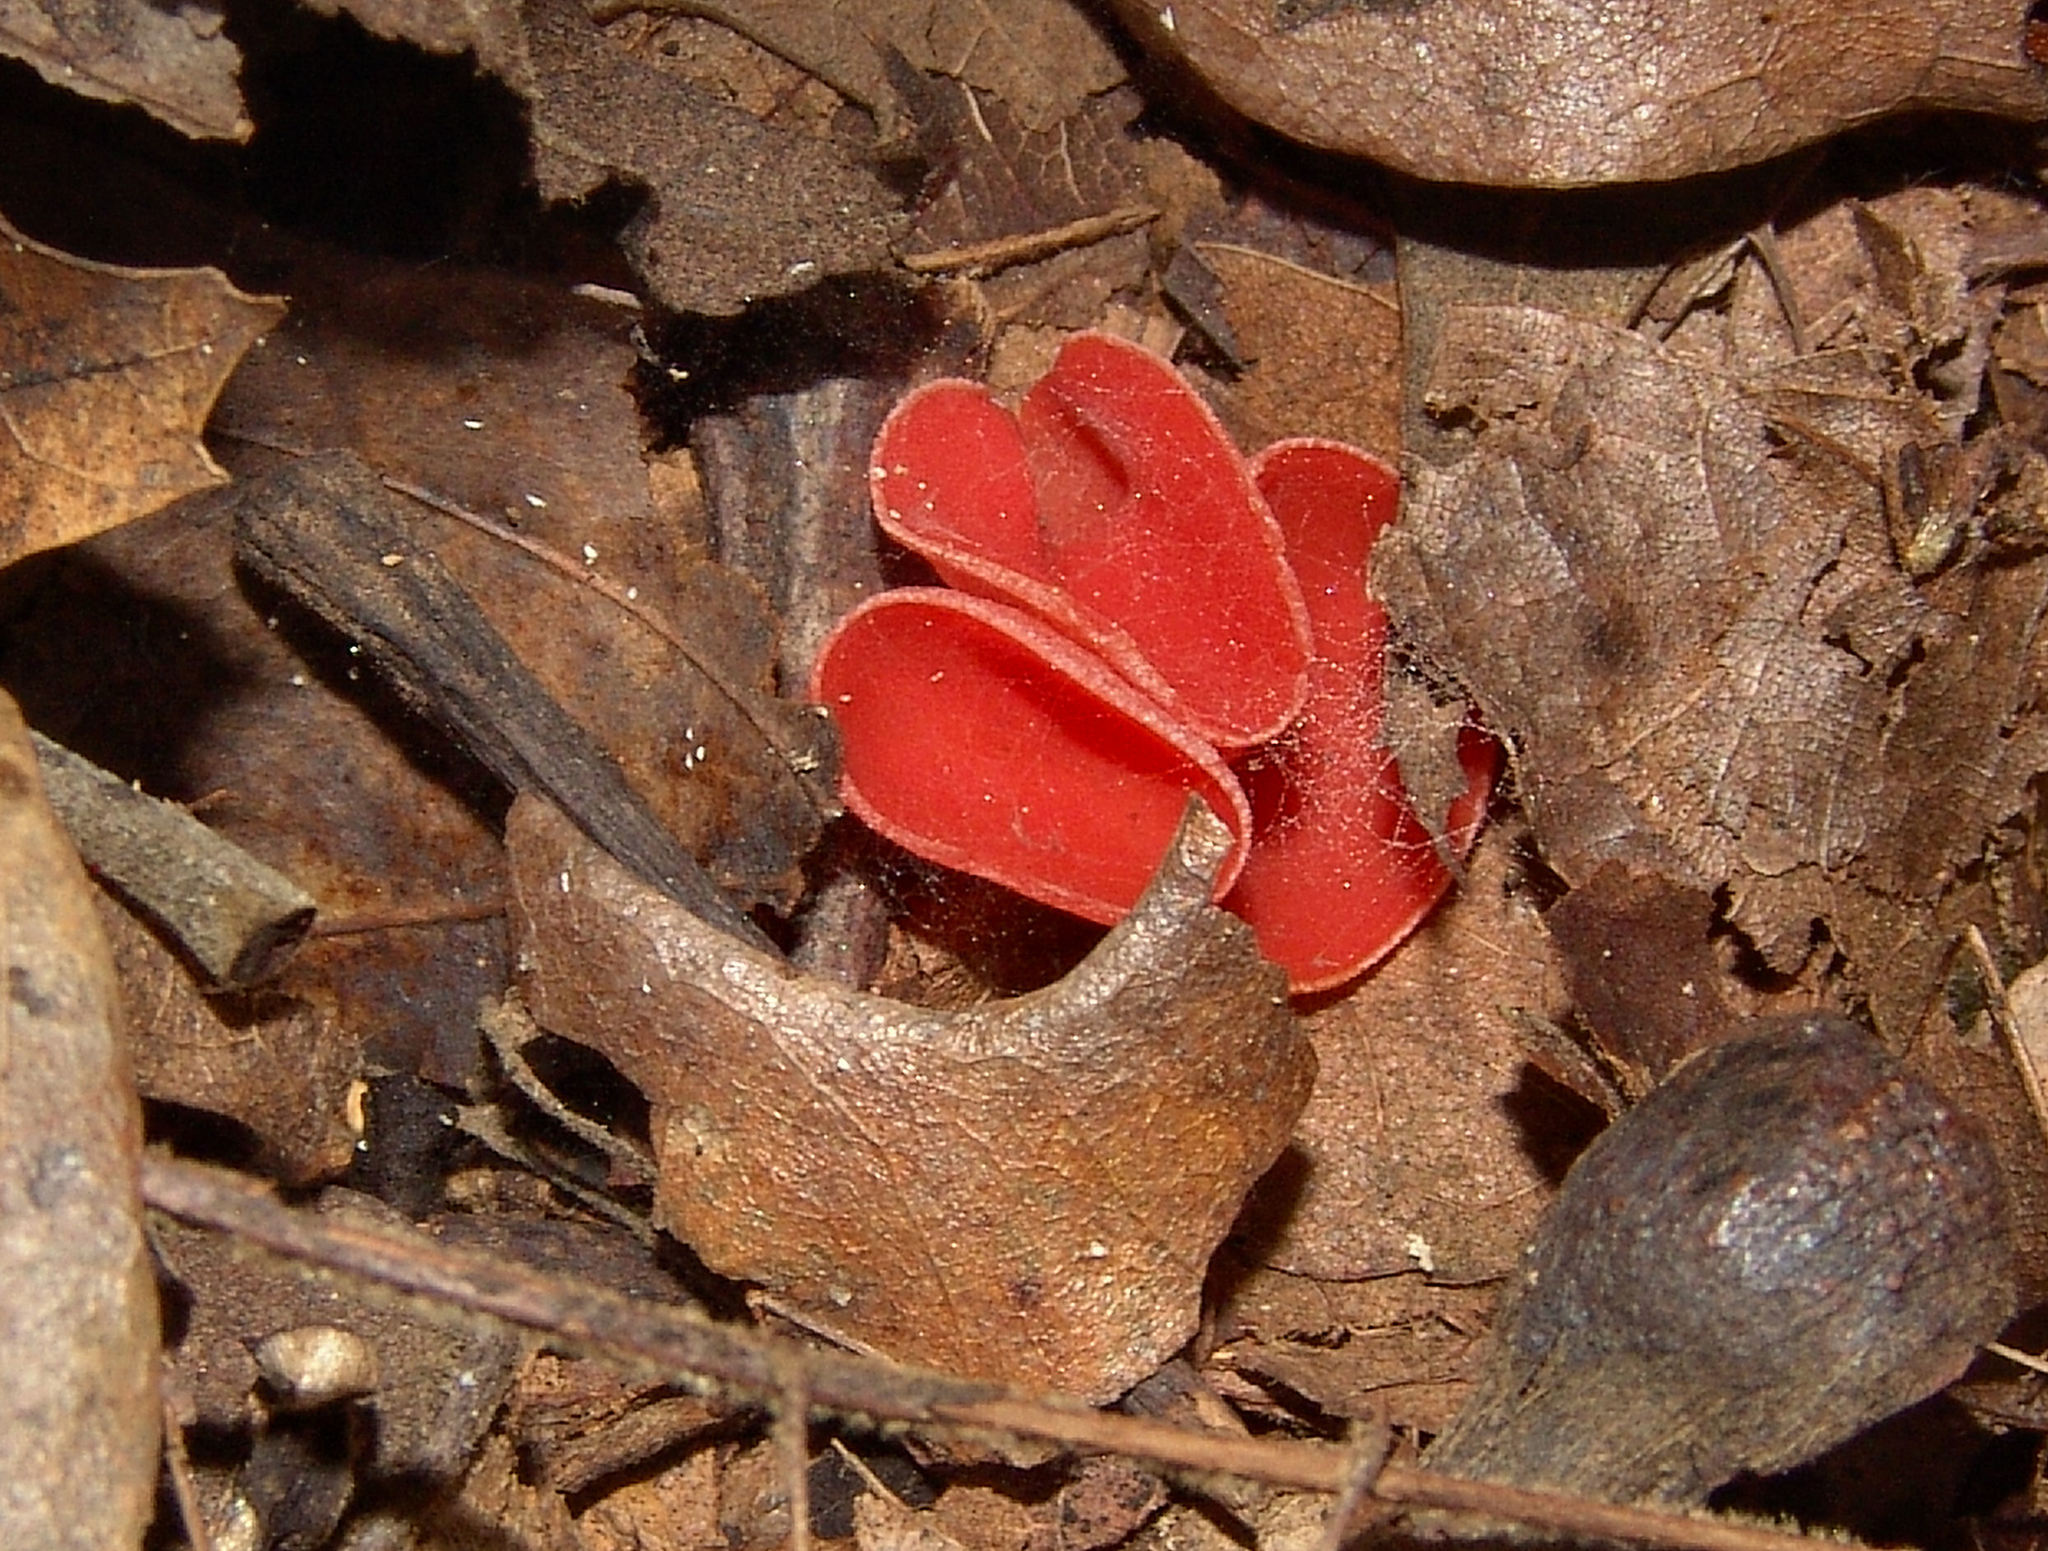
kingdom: Fungi
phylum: Ascomycota
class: Pezizomycetes
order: Pezizales
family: Sarcoscyphaceae
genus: Sarcoscypha
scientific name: Sarcoscypha occidentalis
